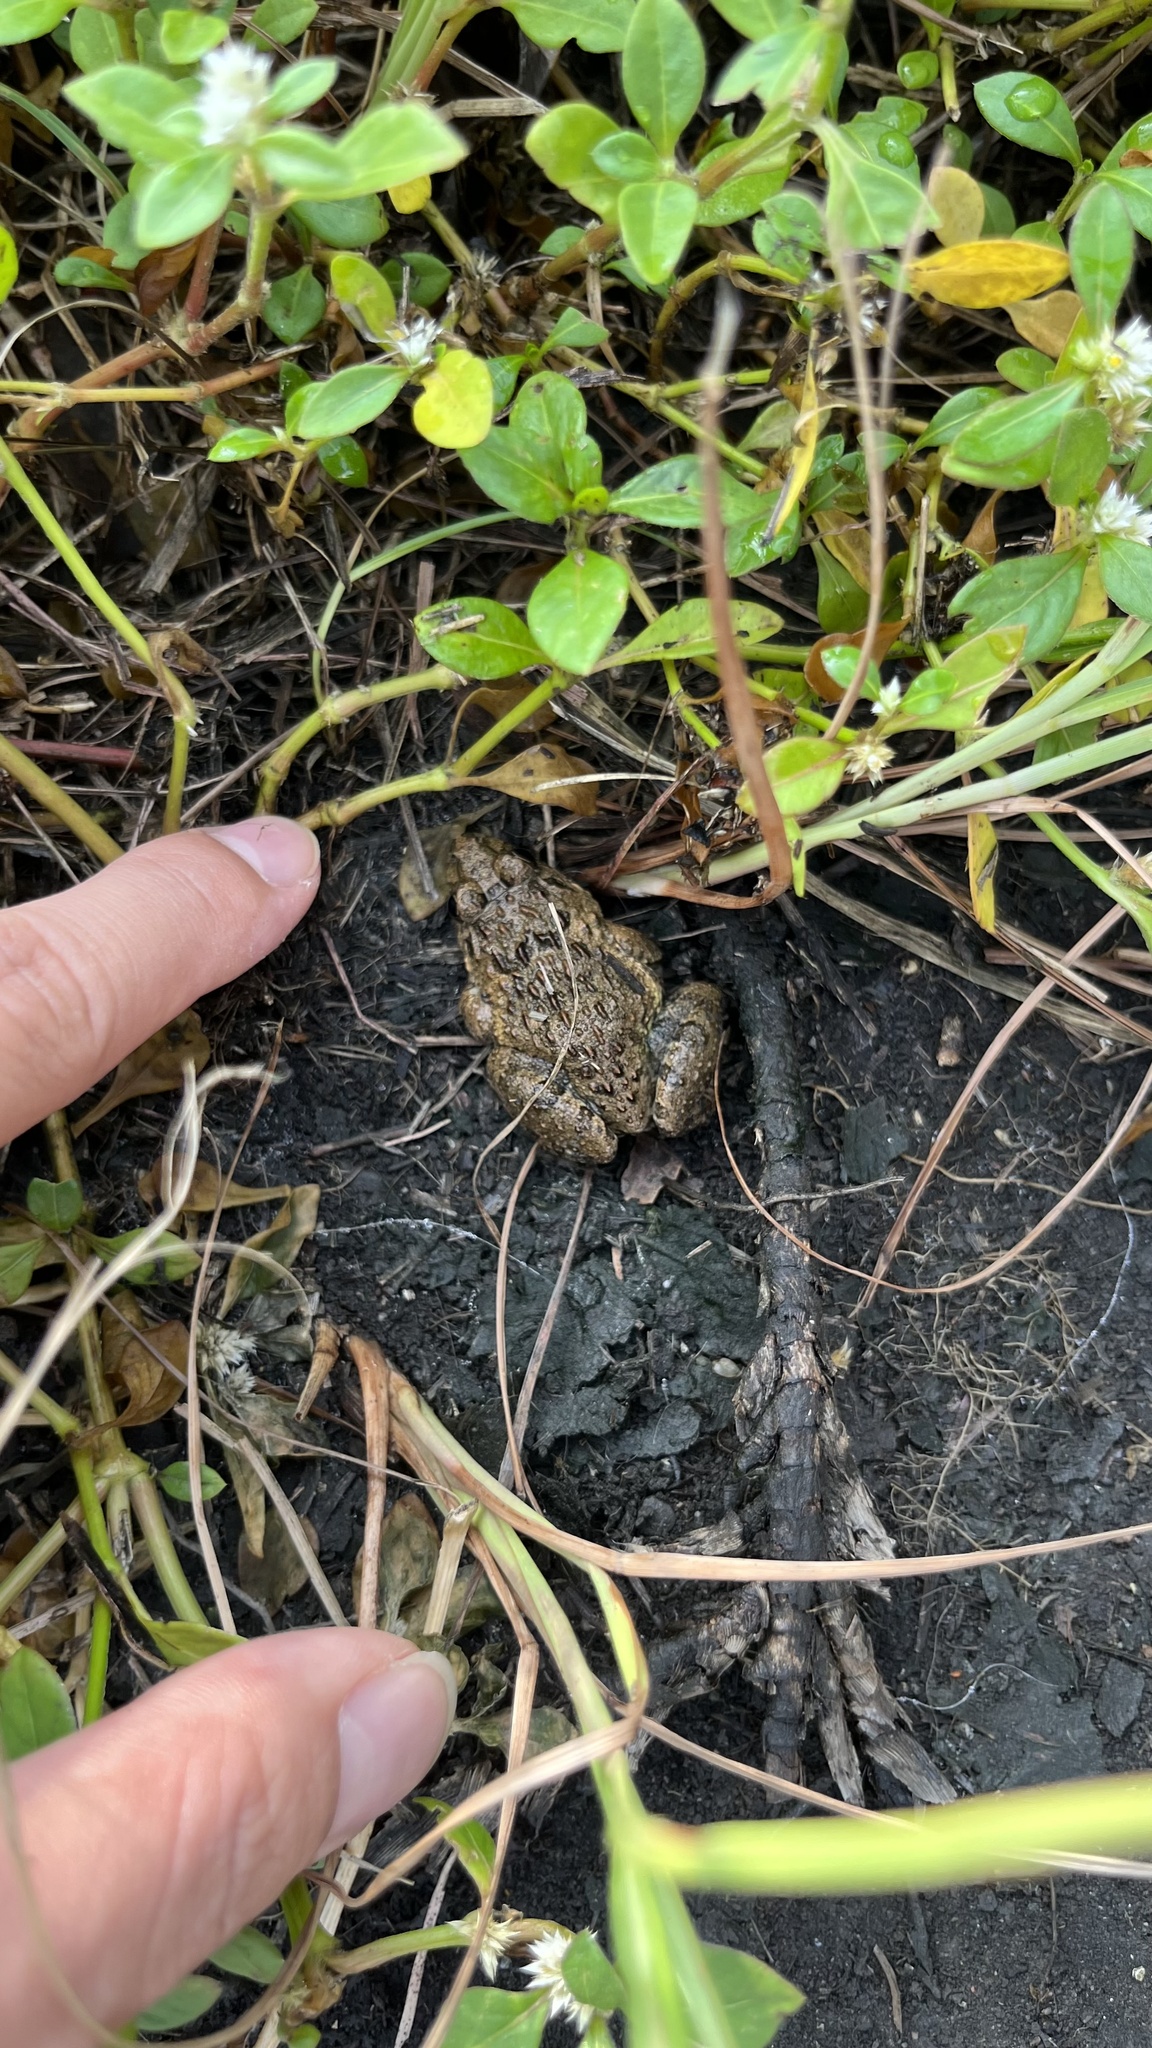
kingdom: Animalia
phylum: Chordata
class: Amphibia
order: Anura
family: Dicroglossidae
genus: Fejervarya
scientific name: Fejervarya limnocharis
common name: Asian grass frog/common pond frog/field frog/grass frog/indian rice frog
